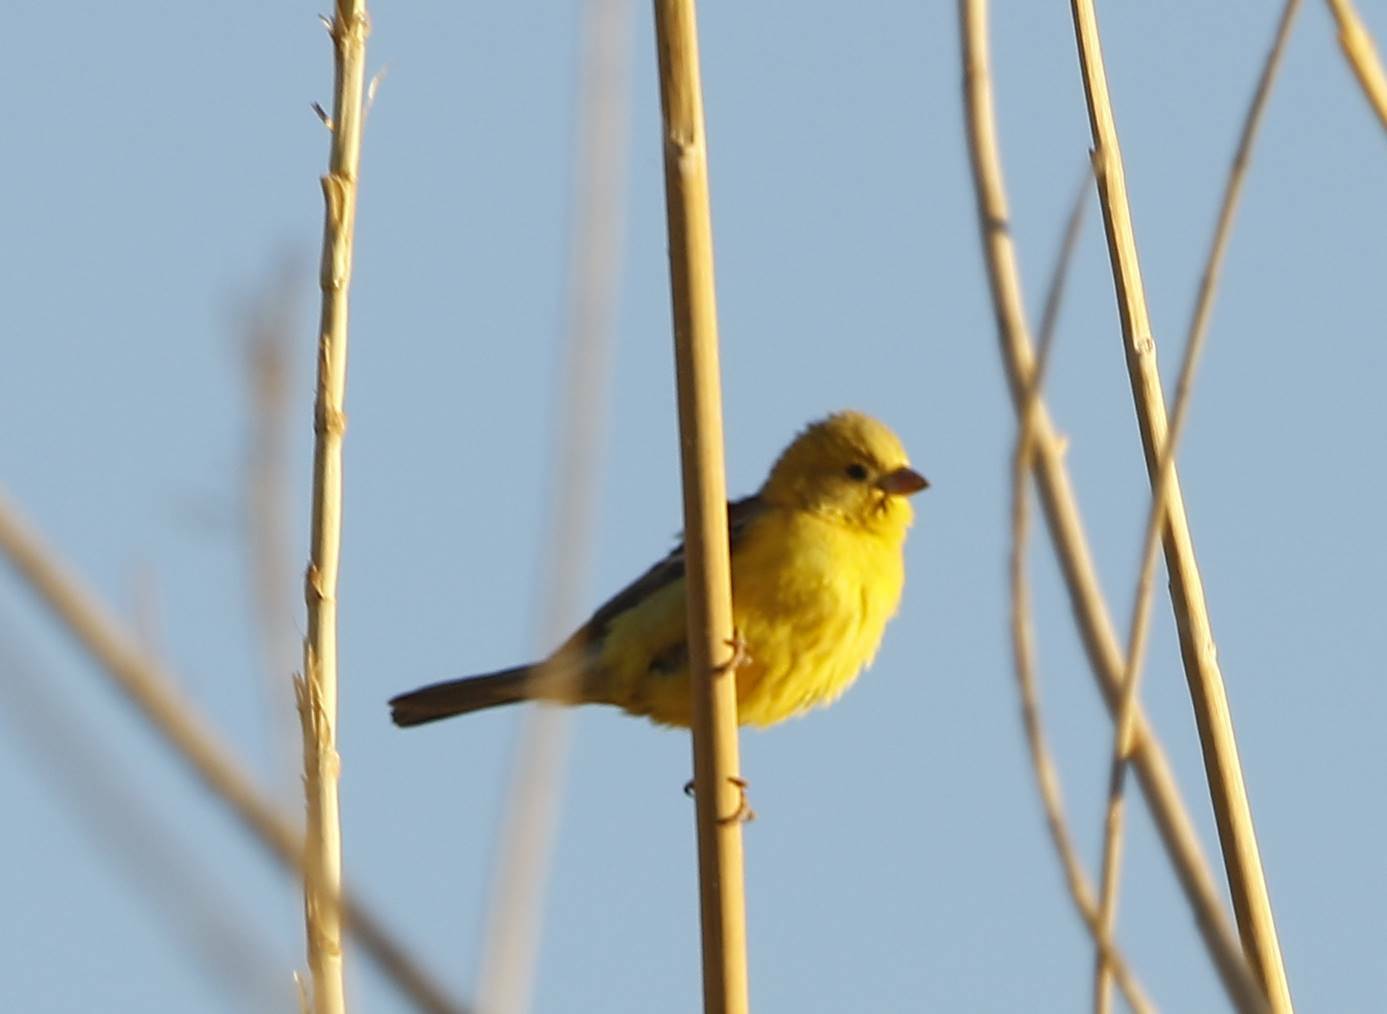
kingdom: Animalia
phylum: Chordata
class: Aves
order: Passeriformes
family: Passeridae
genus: Passer
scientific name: Passer luteus
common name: Sudan golden sparrow
